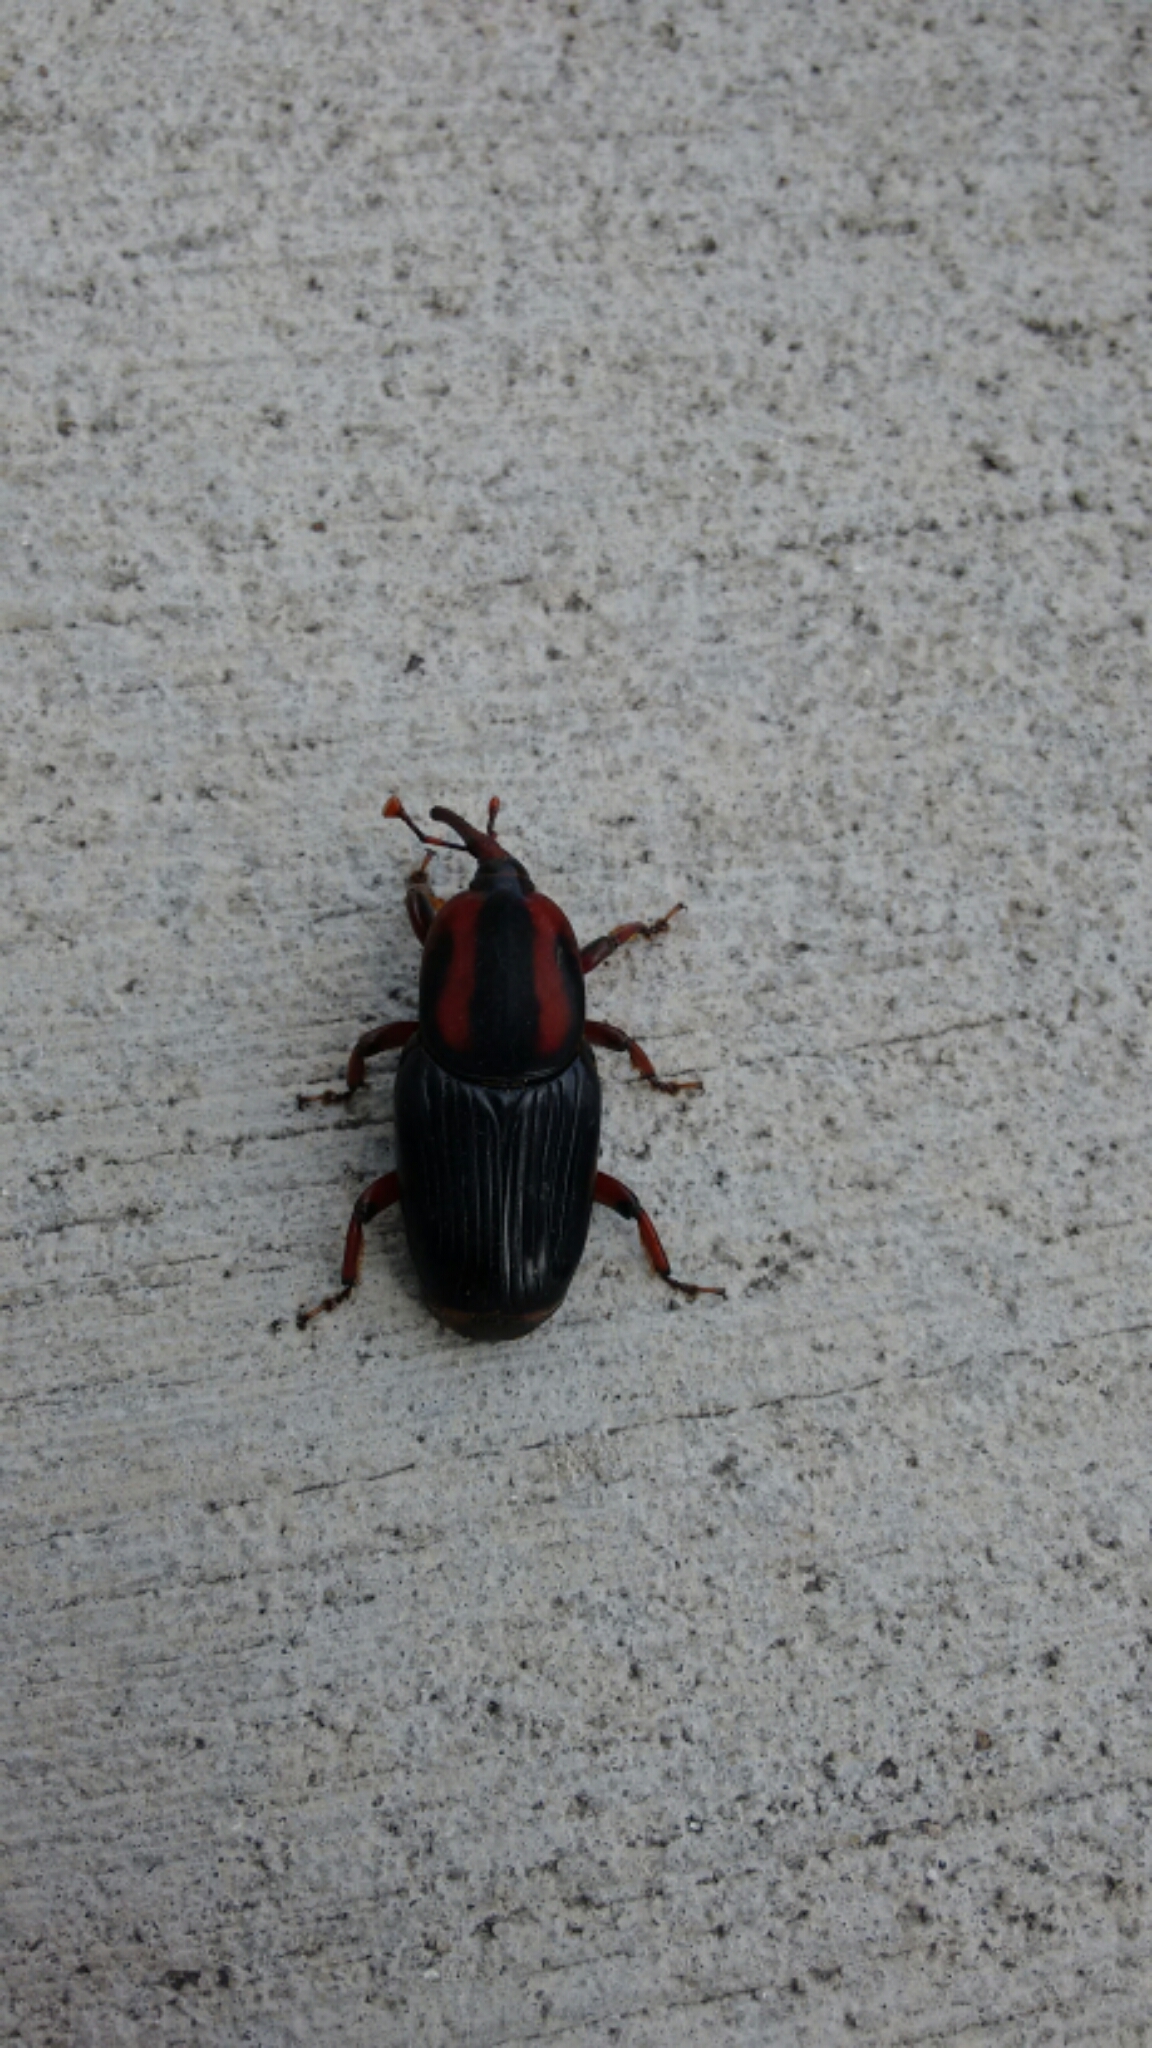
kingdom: Animalia
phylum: Arthropoda
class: Insecta
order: Coleoptera
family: Dryophthoridae
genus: Rhynchophorus
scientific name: Rhynchophorus cruentatus
